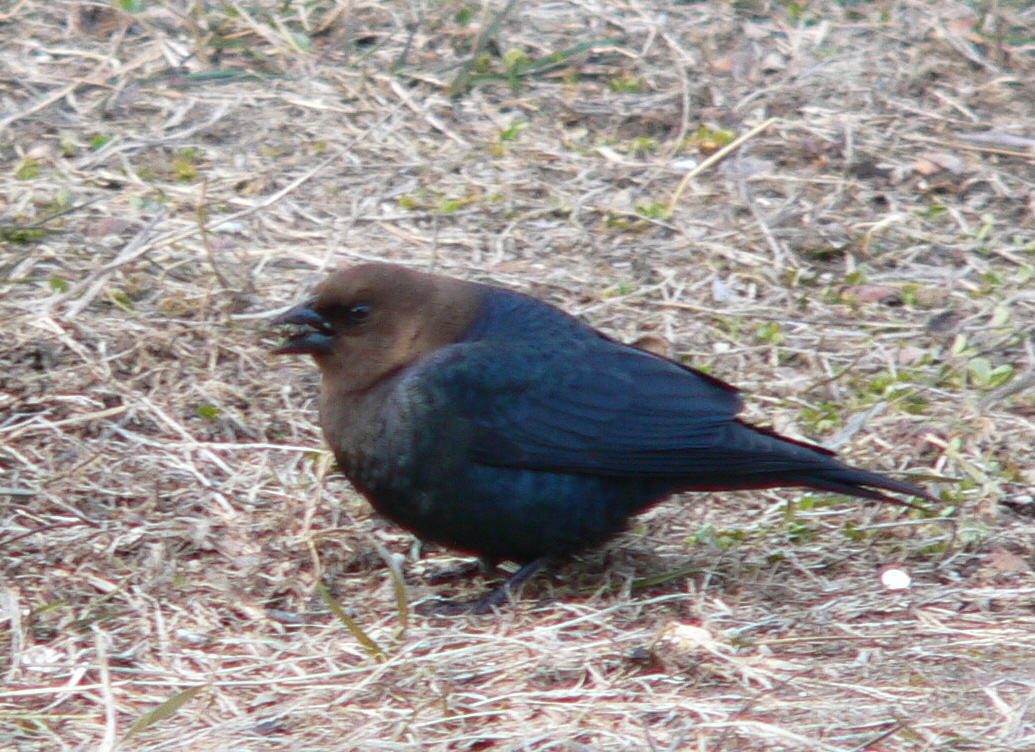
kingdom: Animalia
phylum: Chordata
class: Aves
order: Passeriformes
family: Icteridae
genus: Molothrus
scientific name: Molothrus ater
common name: Brown-headed cowbird
